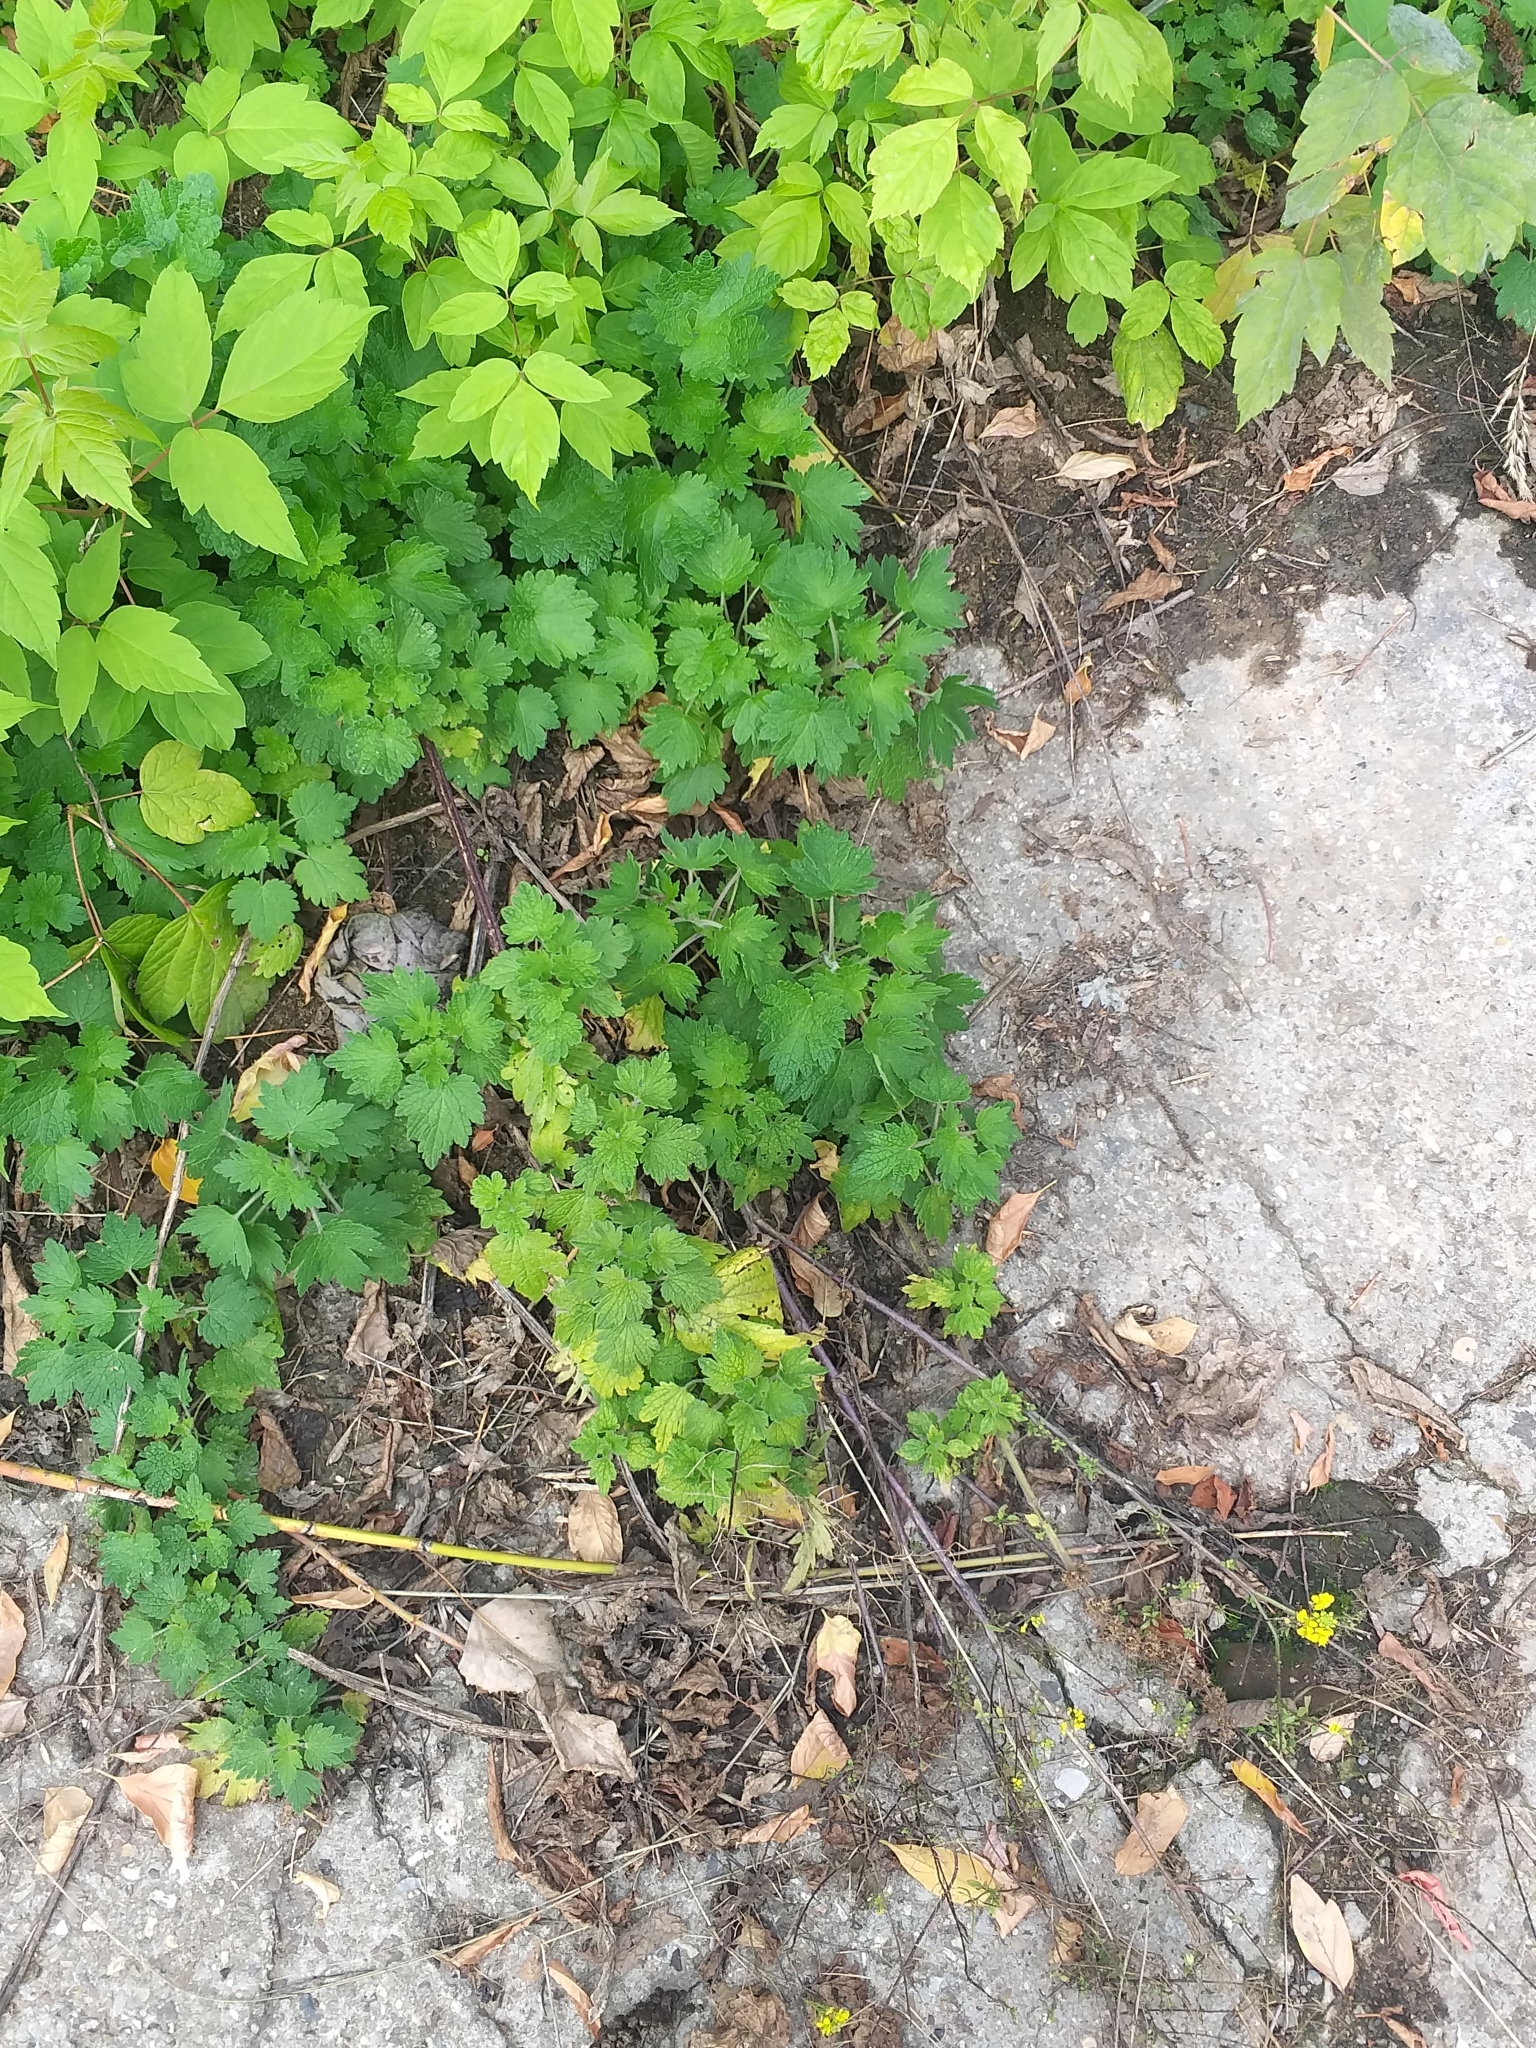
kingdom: Plantae
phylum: Tracheophyta
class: Magnoliopsida
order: Lamiales
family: Lamiaceae
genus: Leonurus
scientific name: Leonurus quinquelobatus
